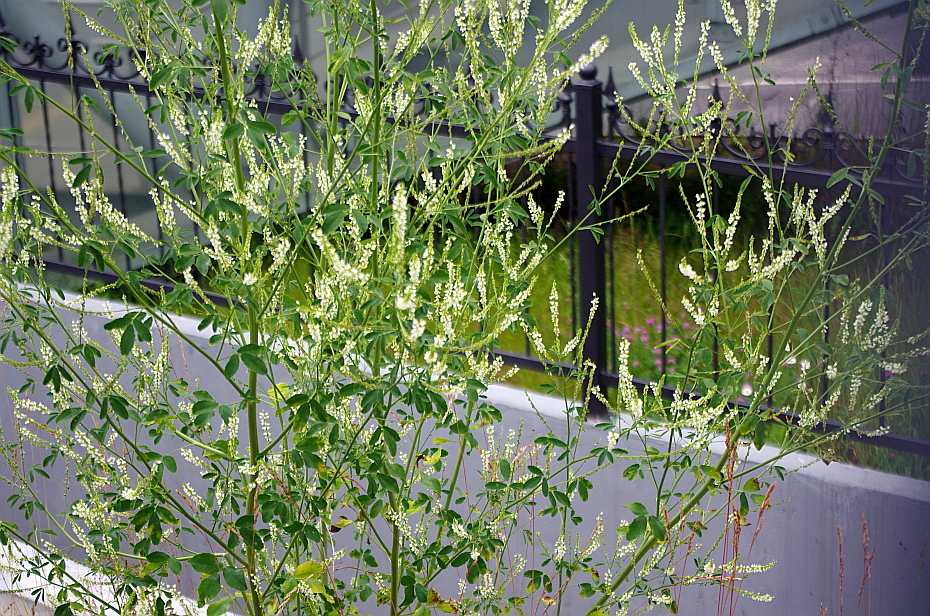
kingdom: Plantae
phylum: Tracheophyta
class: Magnoliopsida
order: Fabales
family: Fabaceae
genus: Melilotus
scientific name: Melilotus albus
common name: White melilot
